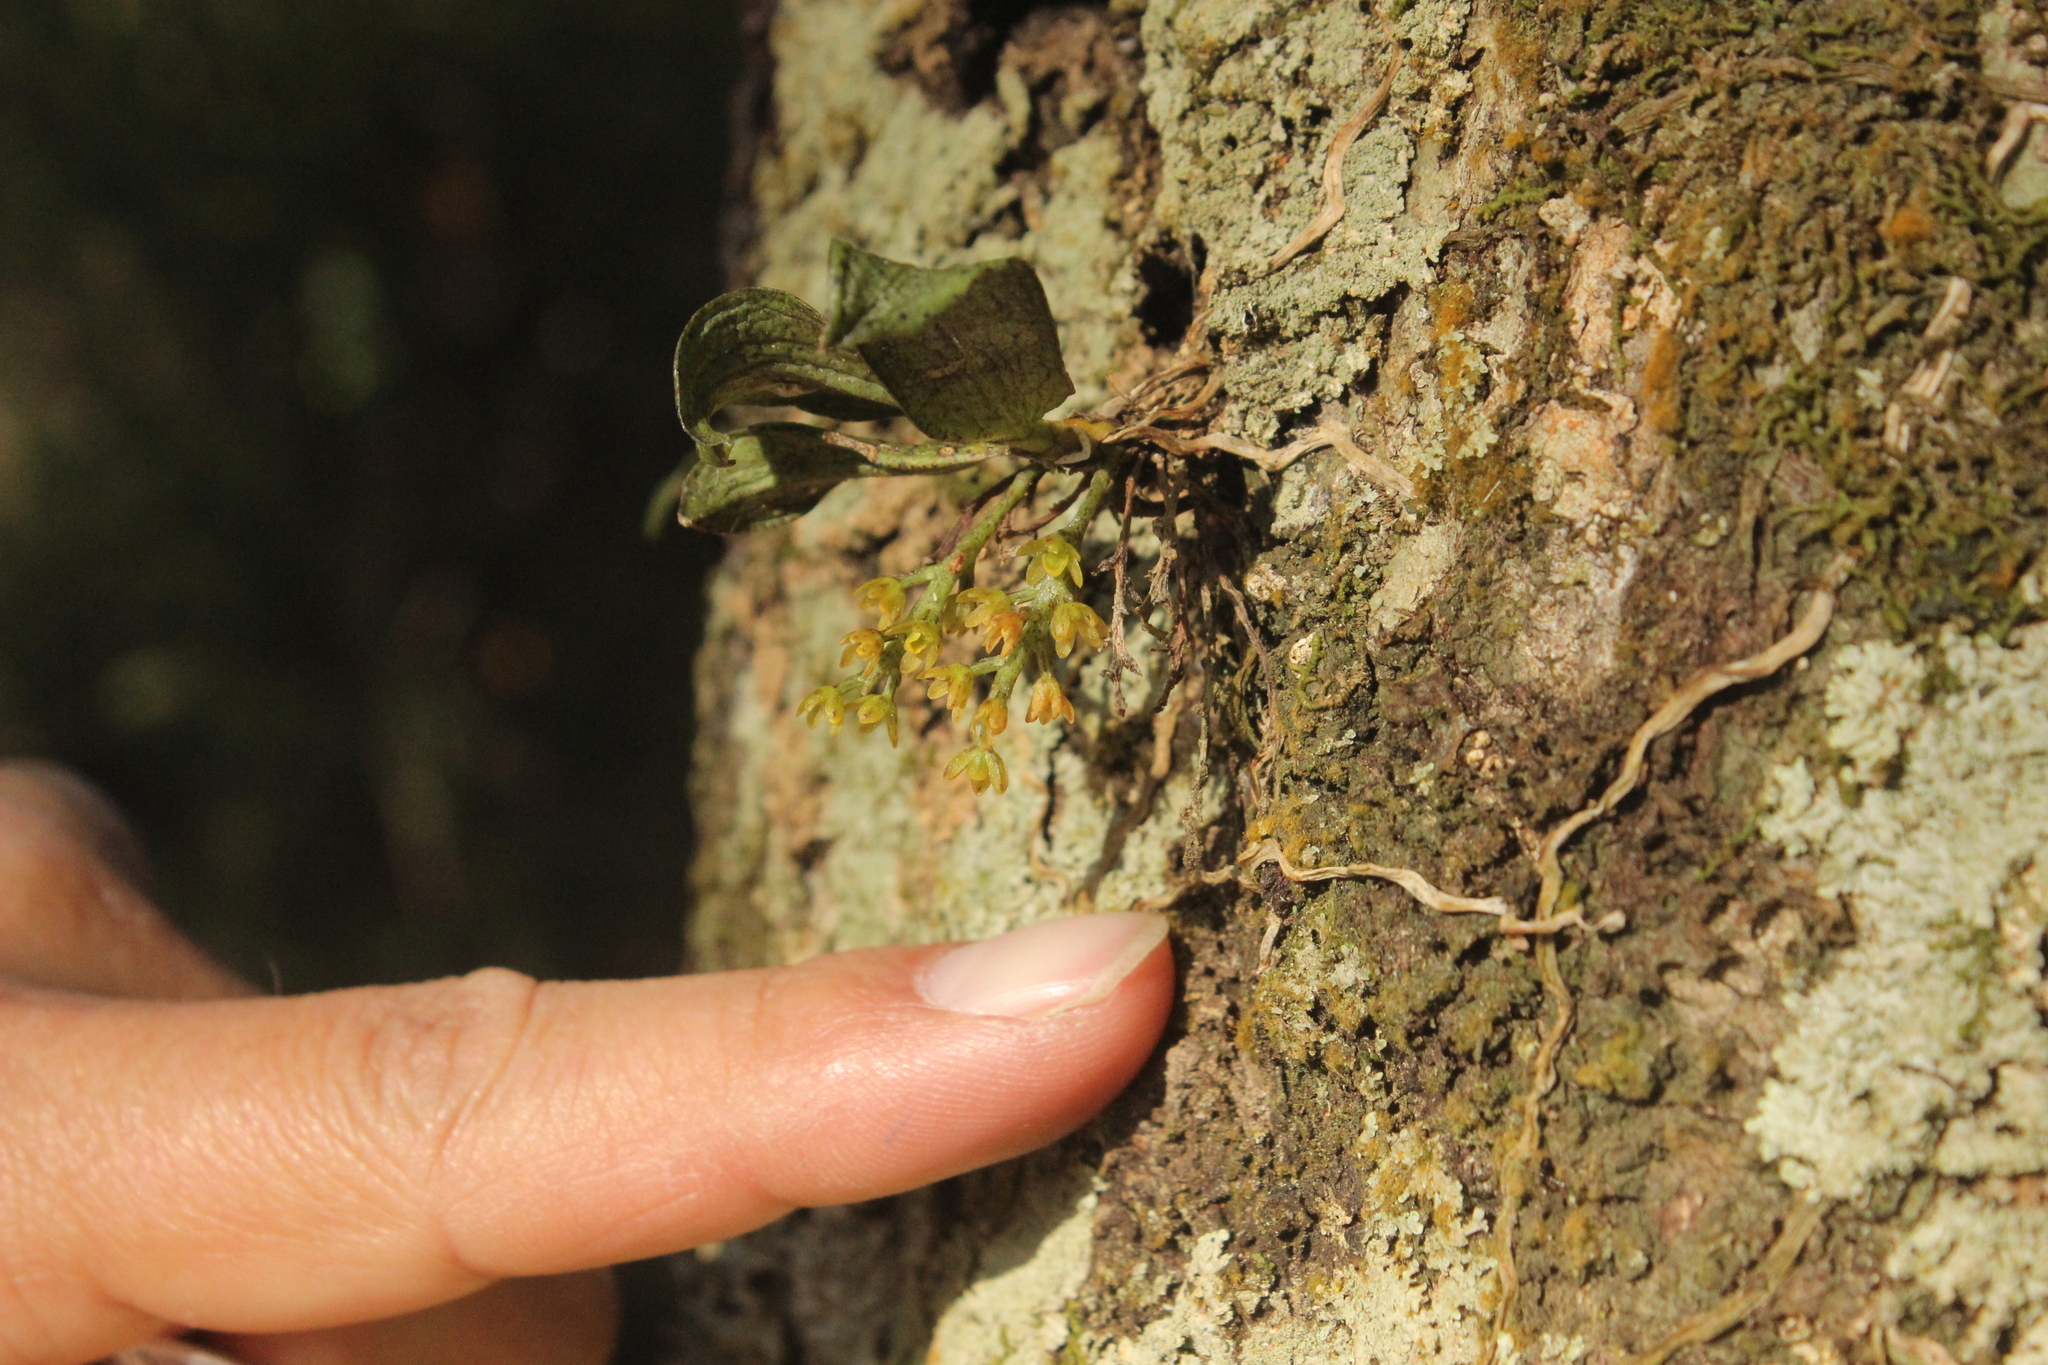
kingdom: Plantae
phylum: Tracheophyta
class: Liliopsida
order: Asparagales
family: Orchidaceae
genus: Drymoanthus
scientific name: Drymoanthus flavus
